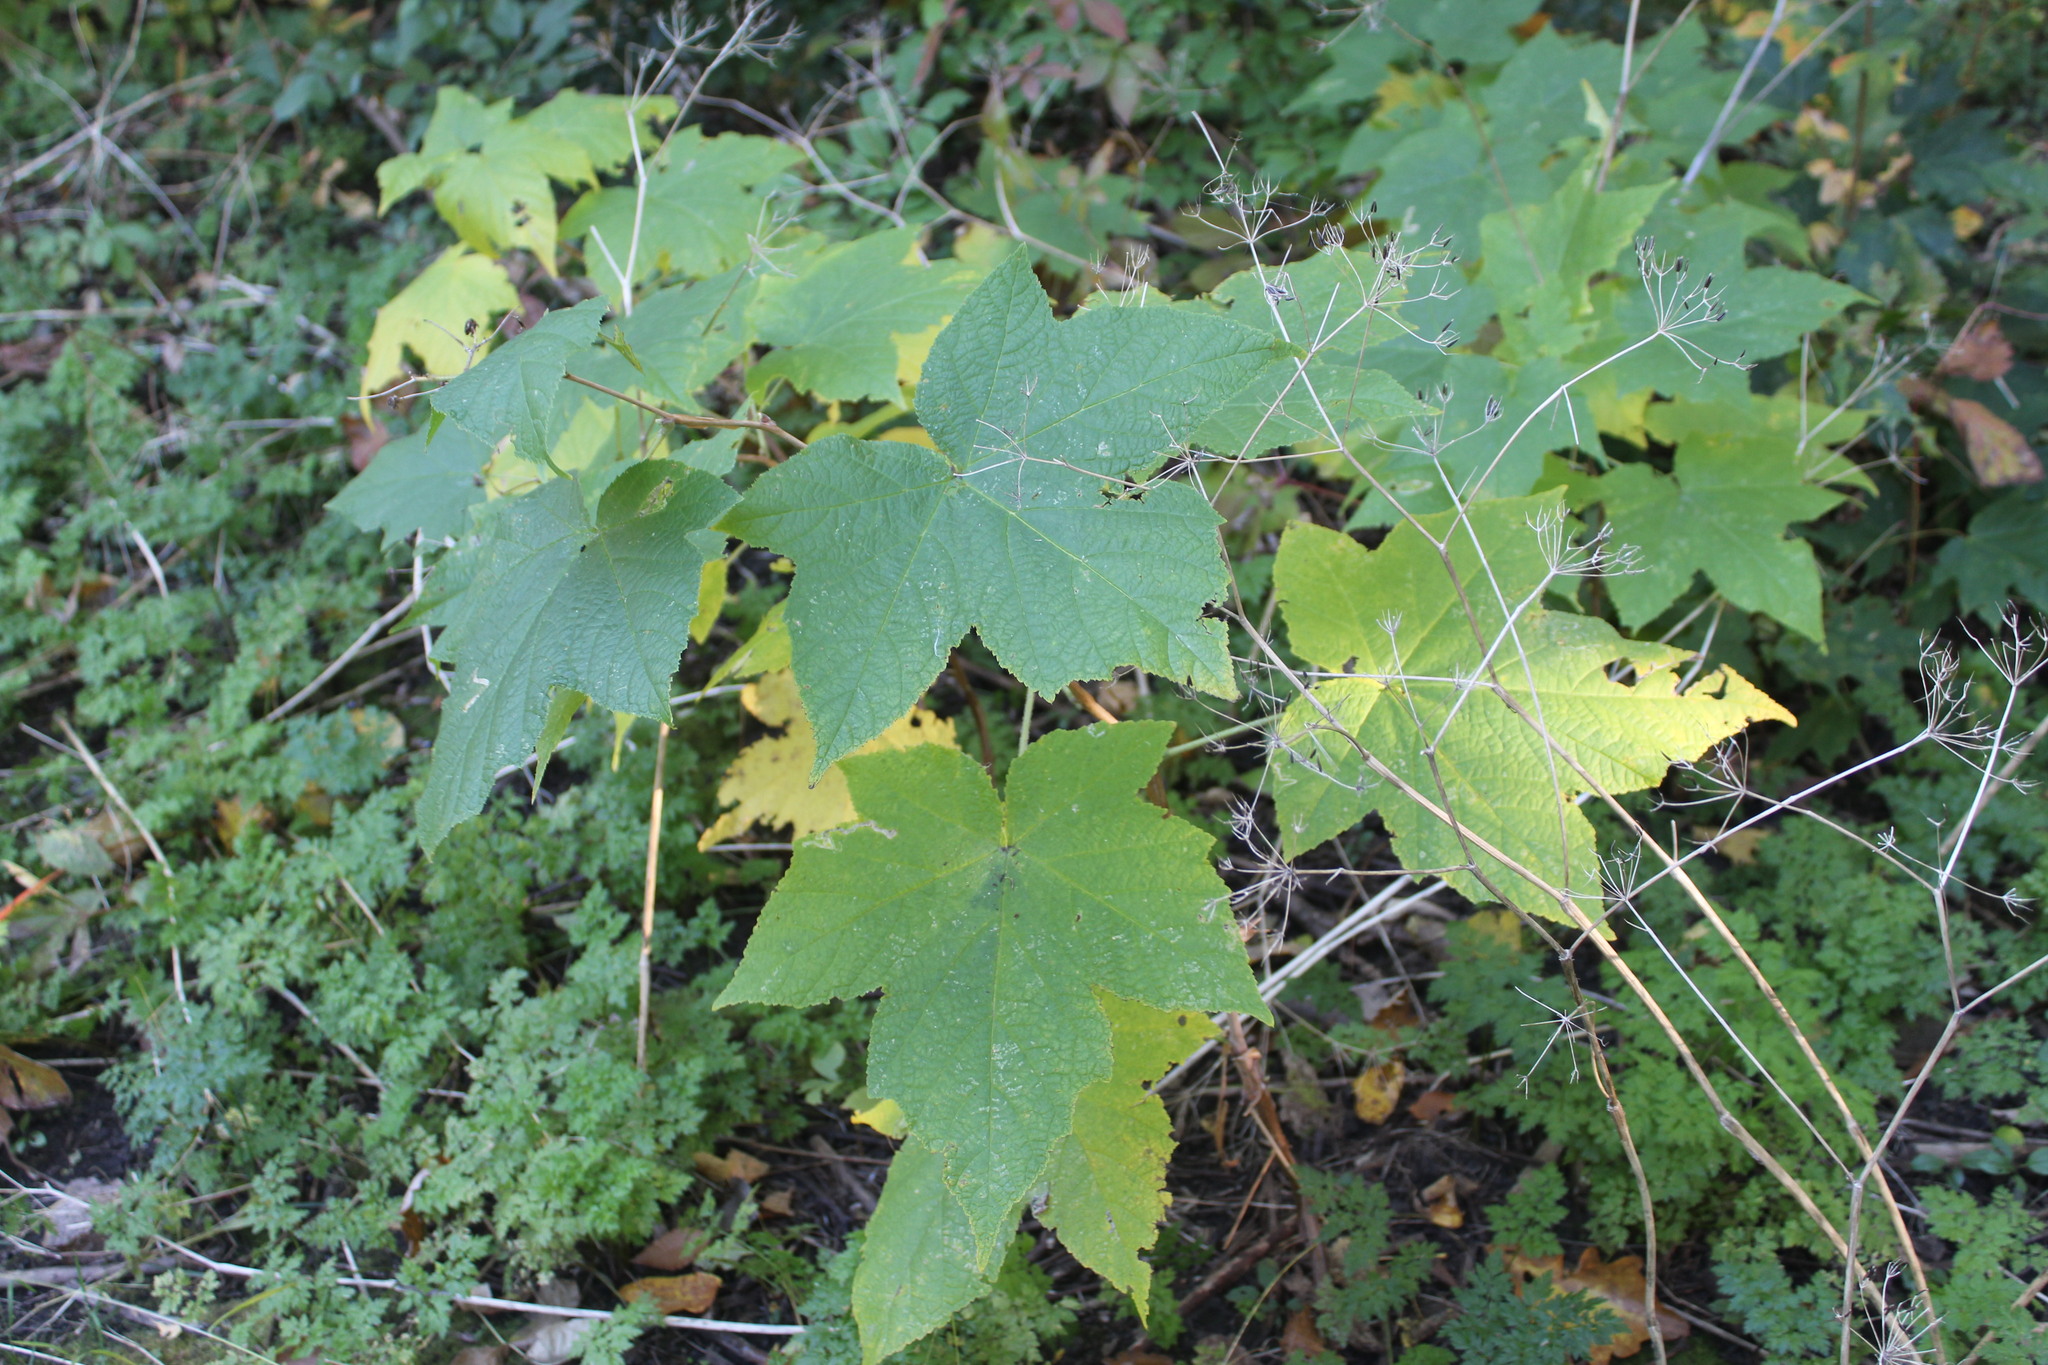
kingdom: Plantae
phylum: Tracheophyta
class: Magnoliopsida
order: Rosales
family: Rosaceae
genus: Rubus
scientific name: Rubus odoratus
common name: Purple-flowered raspberry
